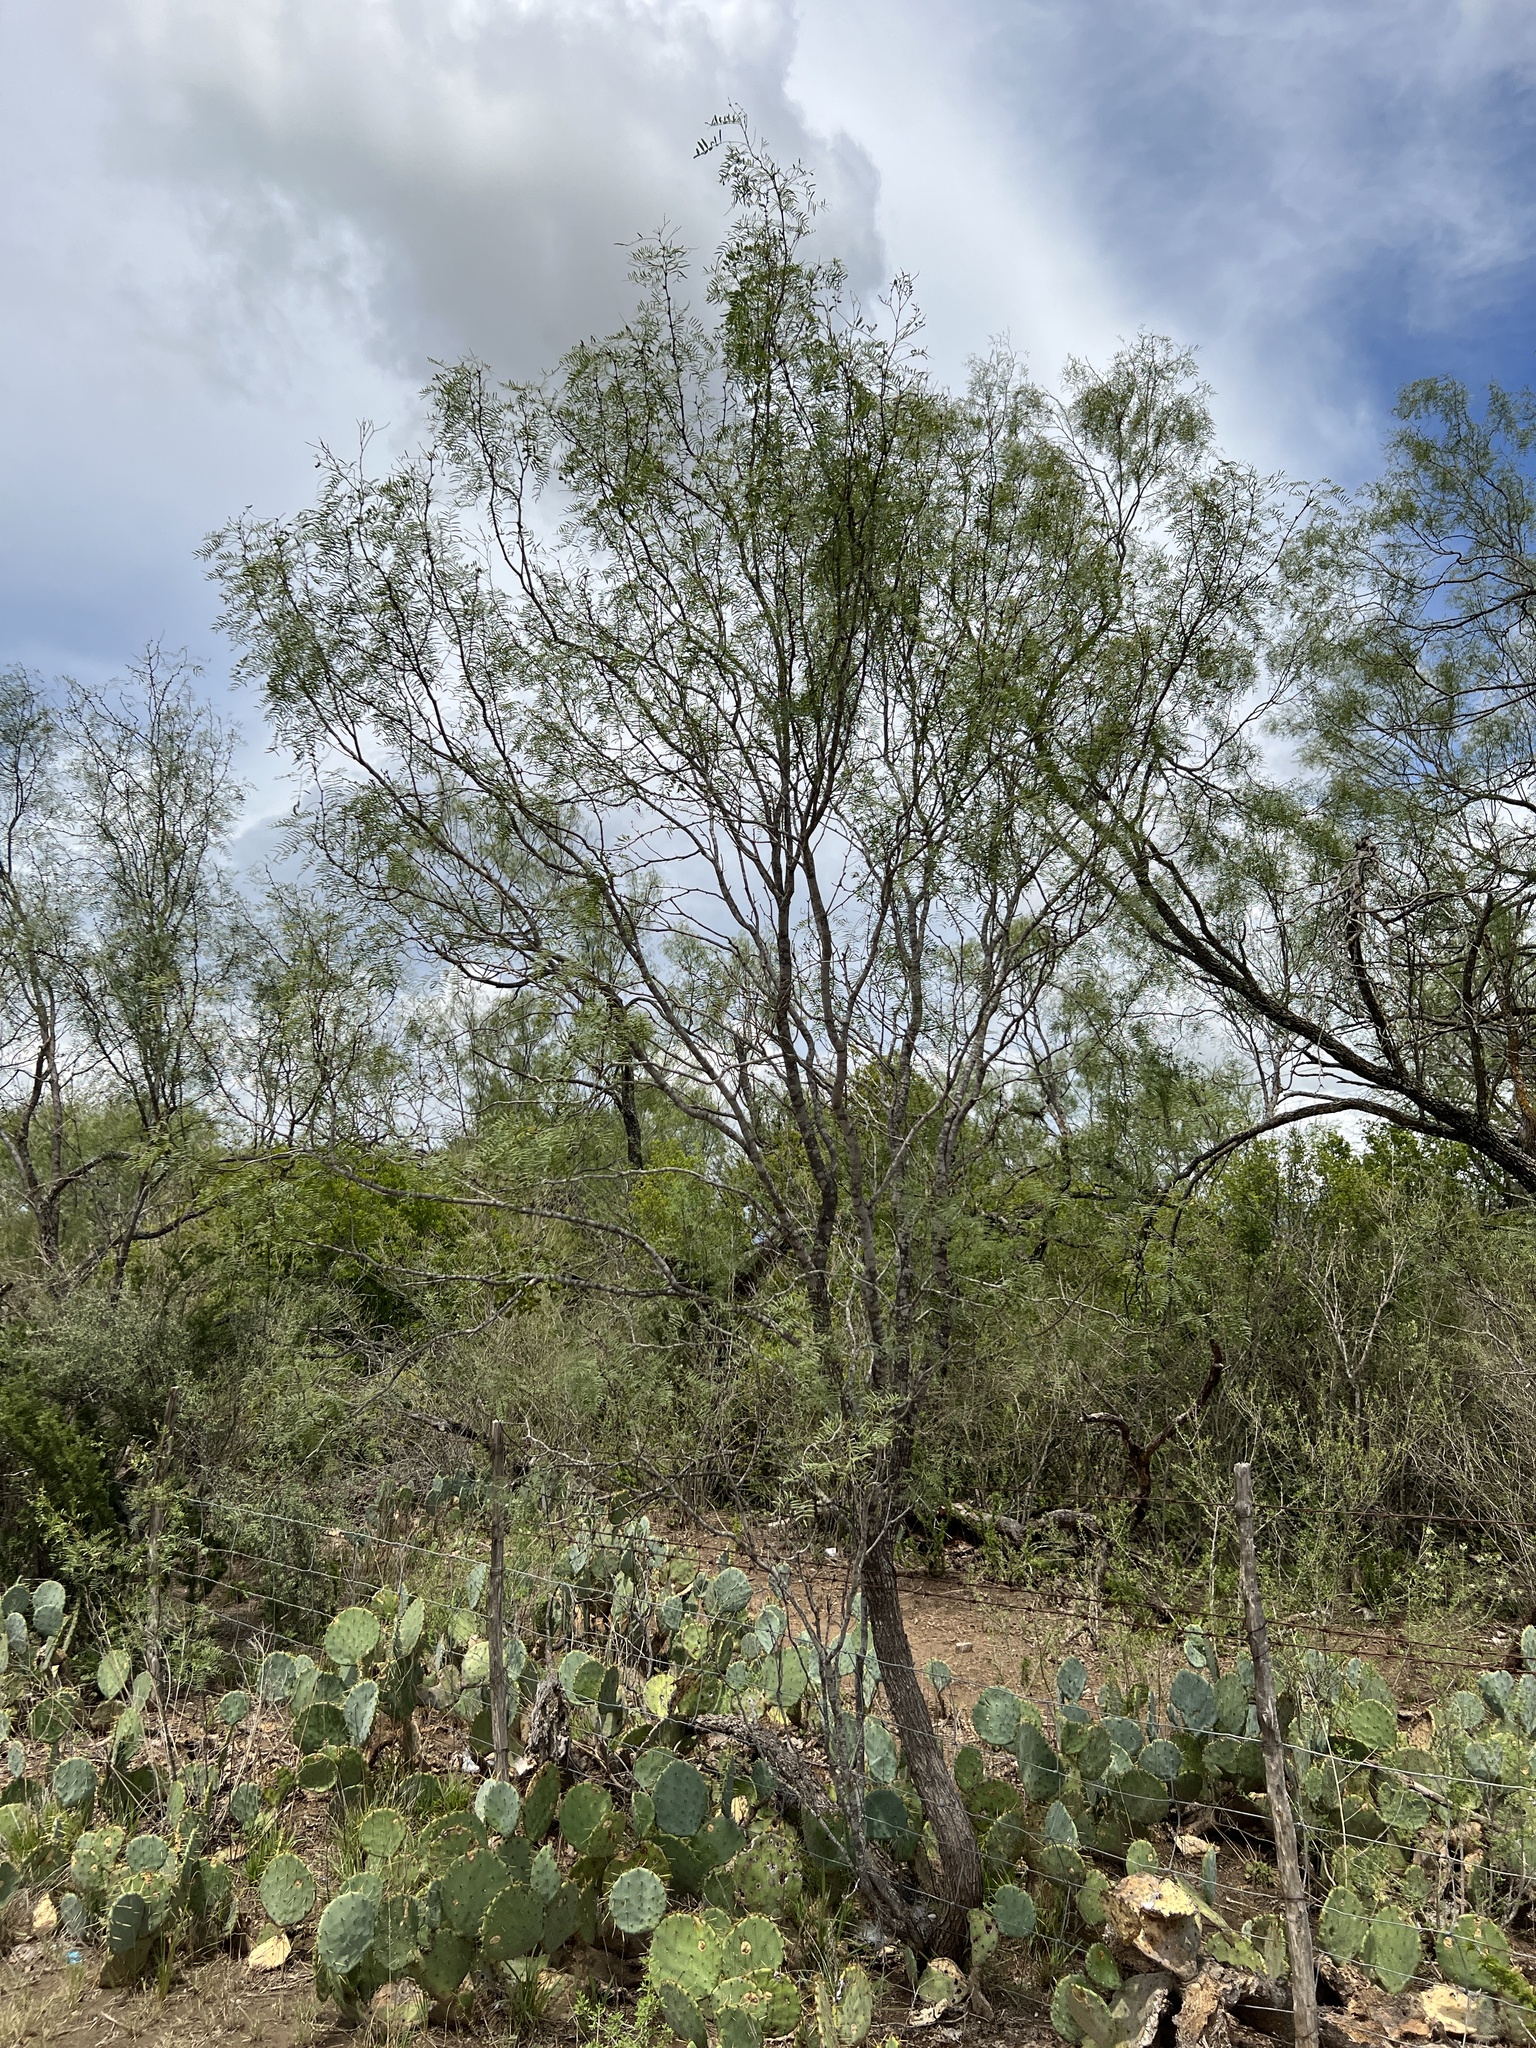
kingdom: Plantae
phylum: Tracheophyta
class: Magnoliopsida
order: Fabales
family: Fabaceae
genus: Prosopis
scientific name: Prosopis glandulosa
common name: Honey mesquite
